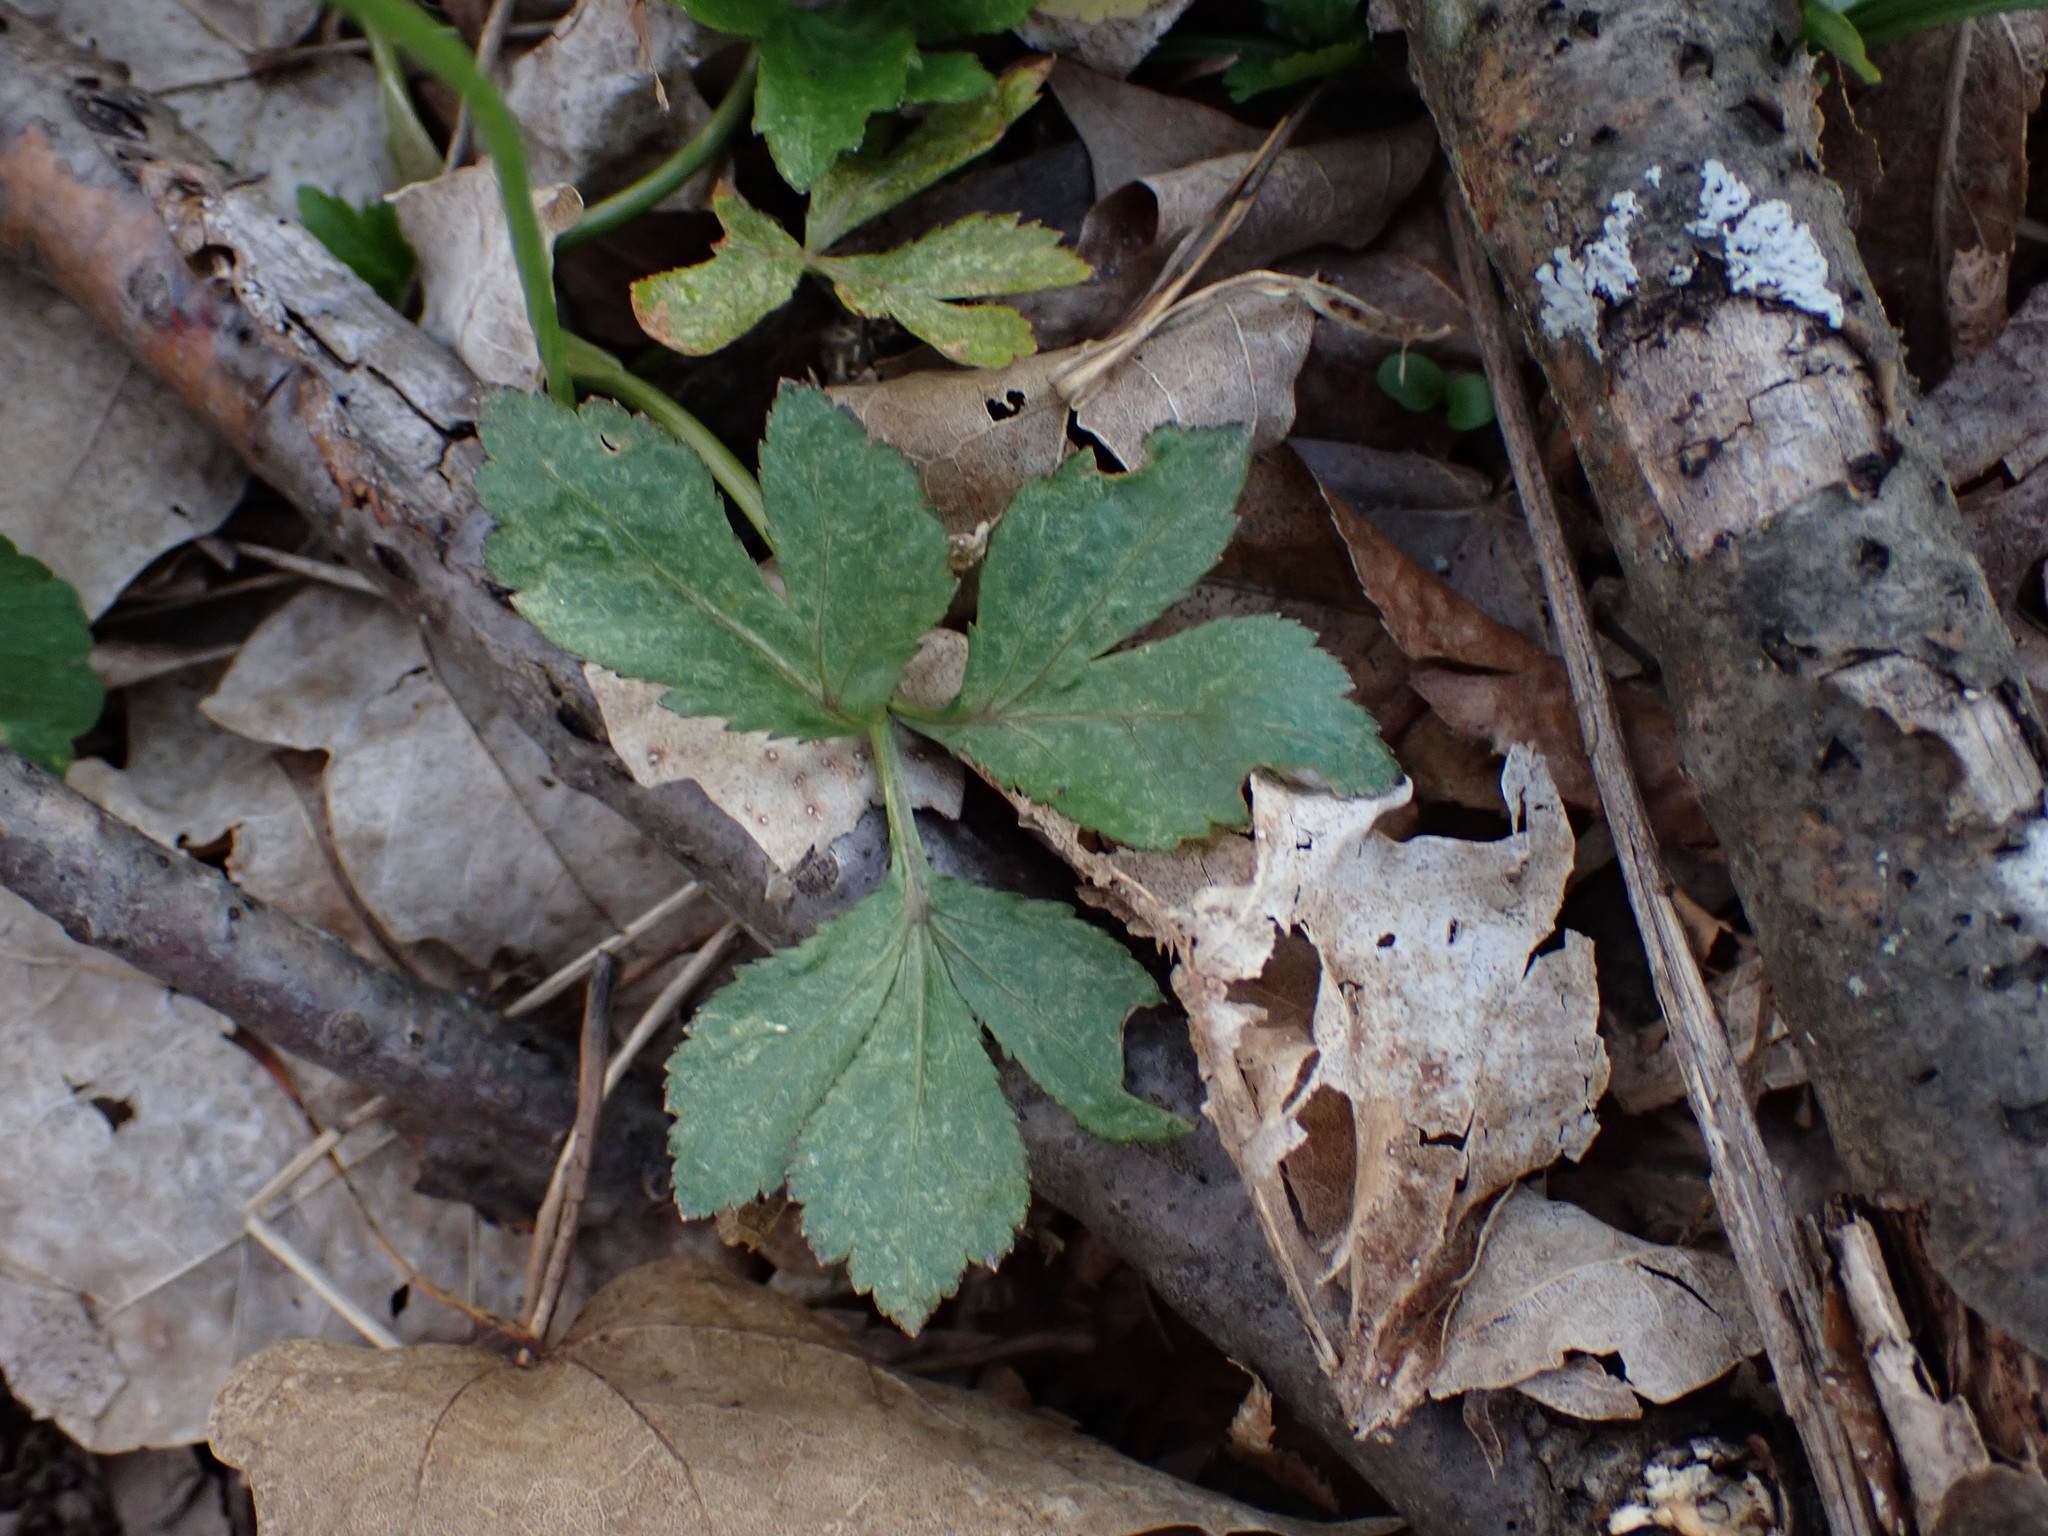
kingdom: Plantae
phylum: Tracheophyta
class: Magnoliopsida
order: Apiales
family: Apiaceae
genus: Cryptotaenia
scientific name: Cryptotaenia canadensis
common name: Honewort
